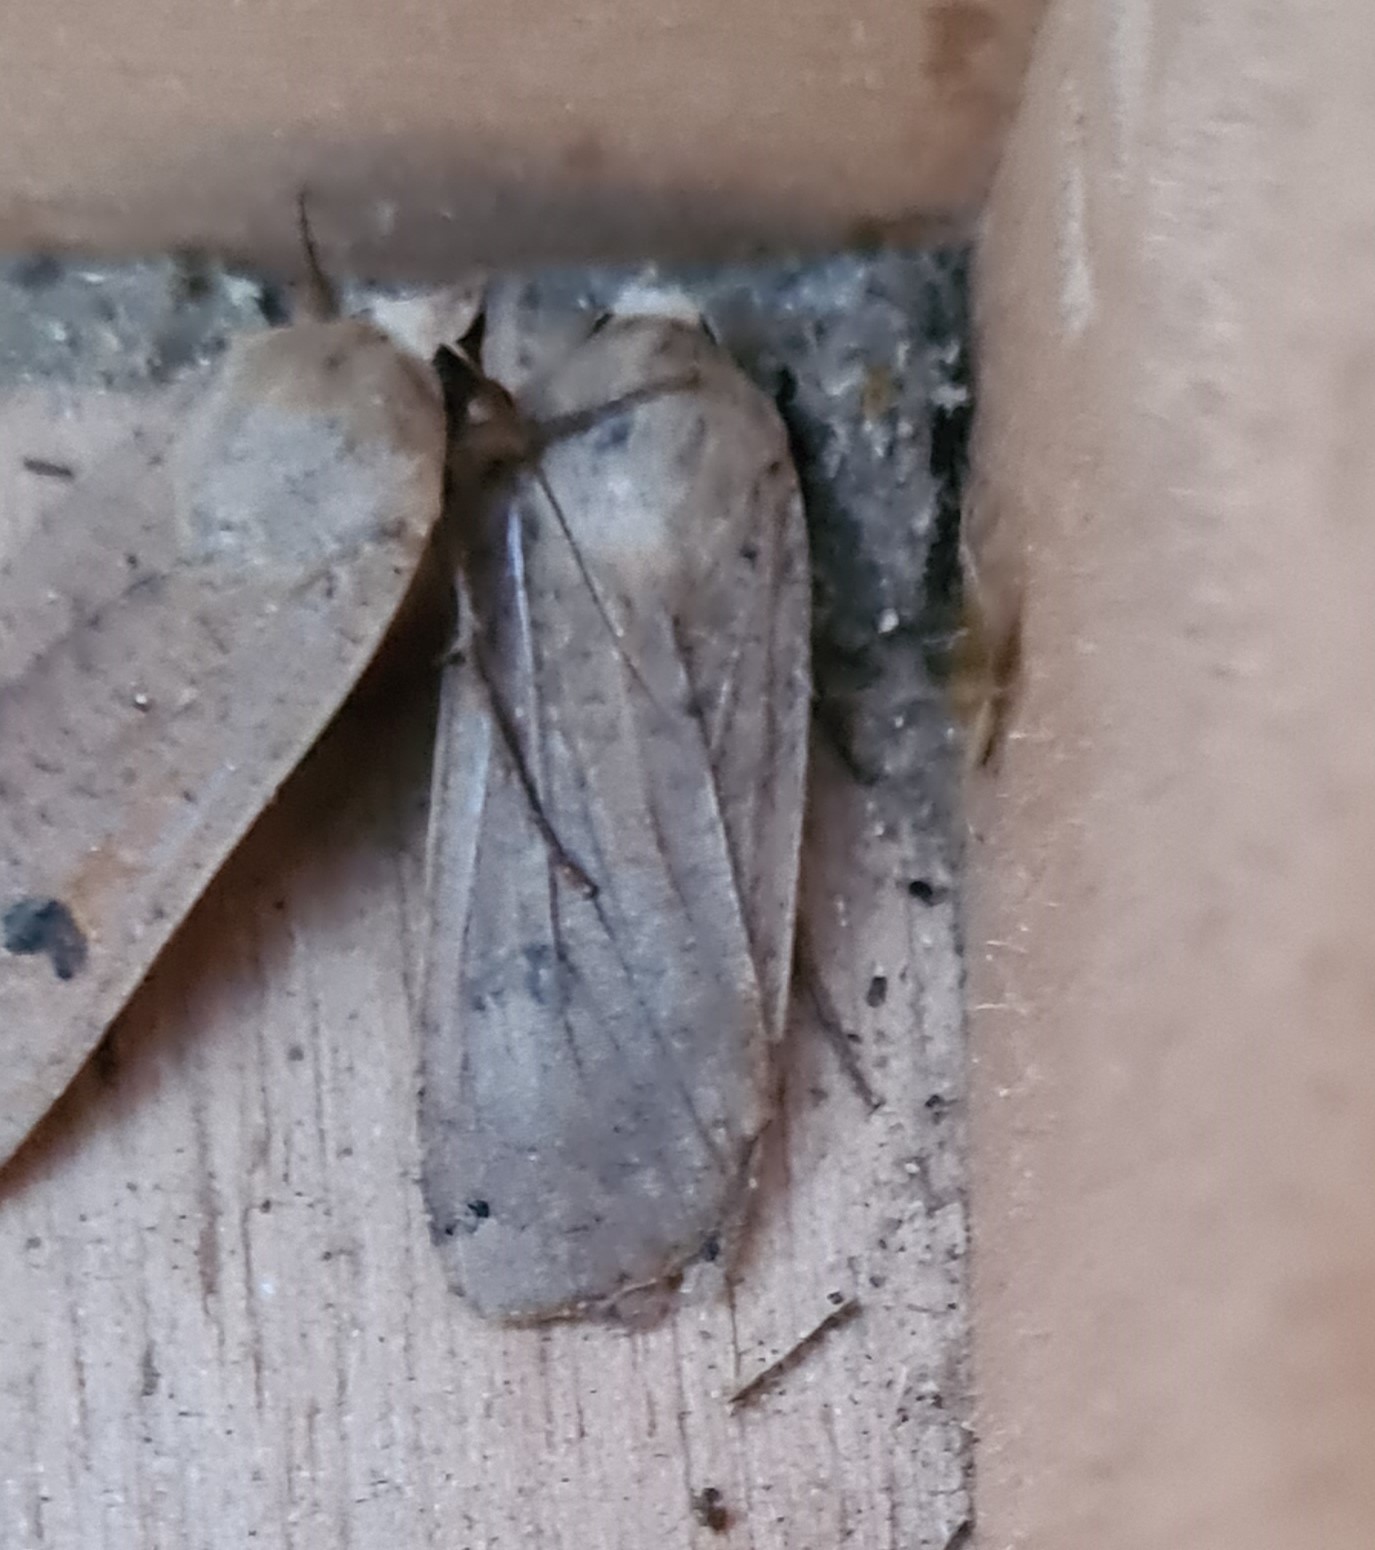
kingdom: Animalia
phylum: Arthropoda
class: Insecta
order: Lepidoptera
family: Noctuidae
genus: Noctua
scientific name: Noctua pronuba
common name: Large yellow underwing
